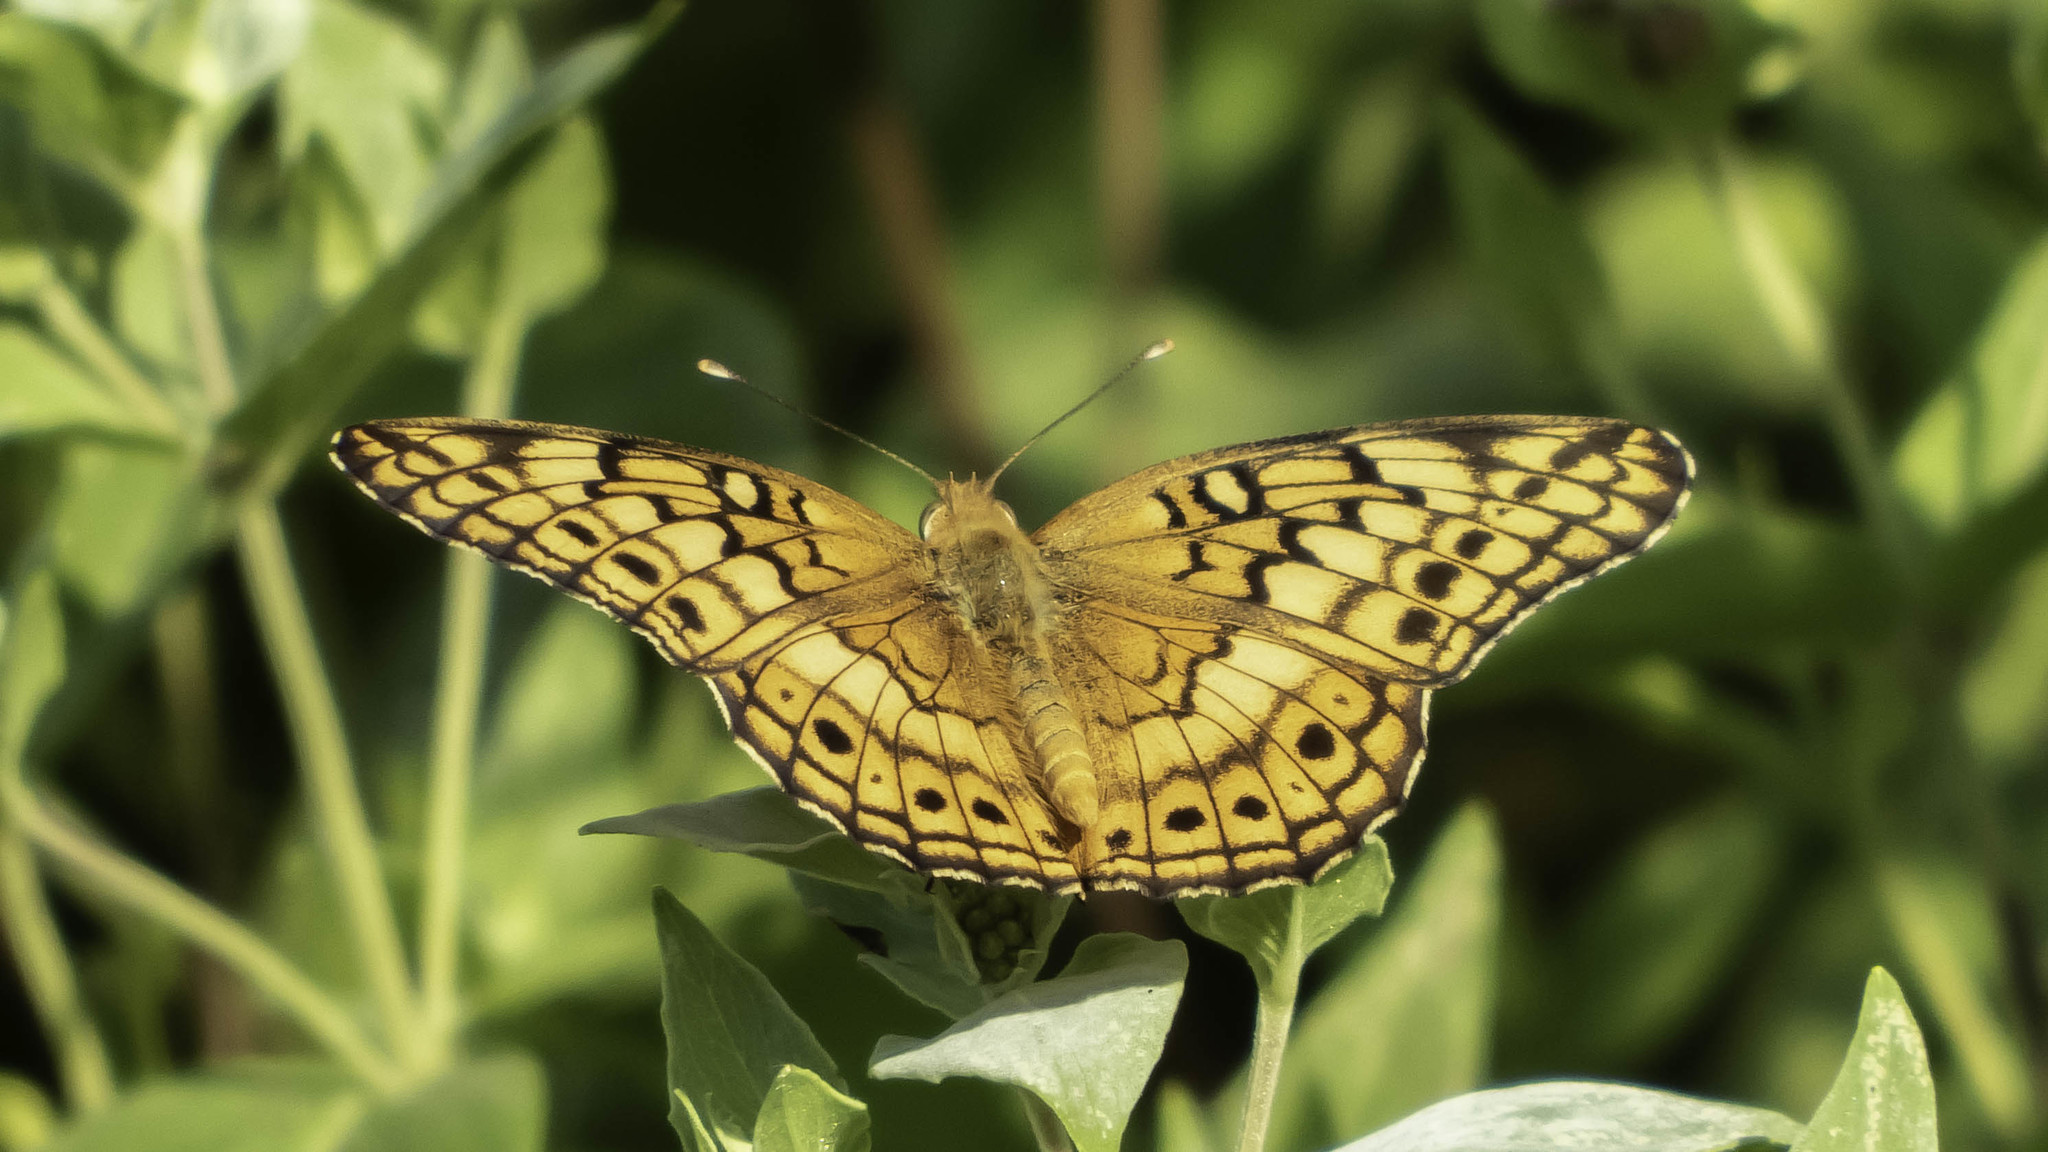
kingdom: Animalia
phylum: Arthropoda
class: Insecta
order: Lepidoptera
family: Nymphalidae
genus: Euptoieta
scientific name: Euptoieta claudia
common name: Variegated fritillary
